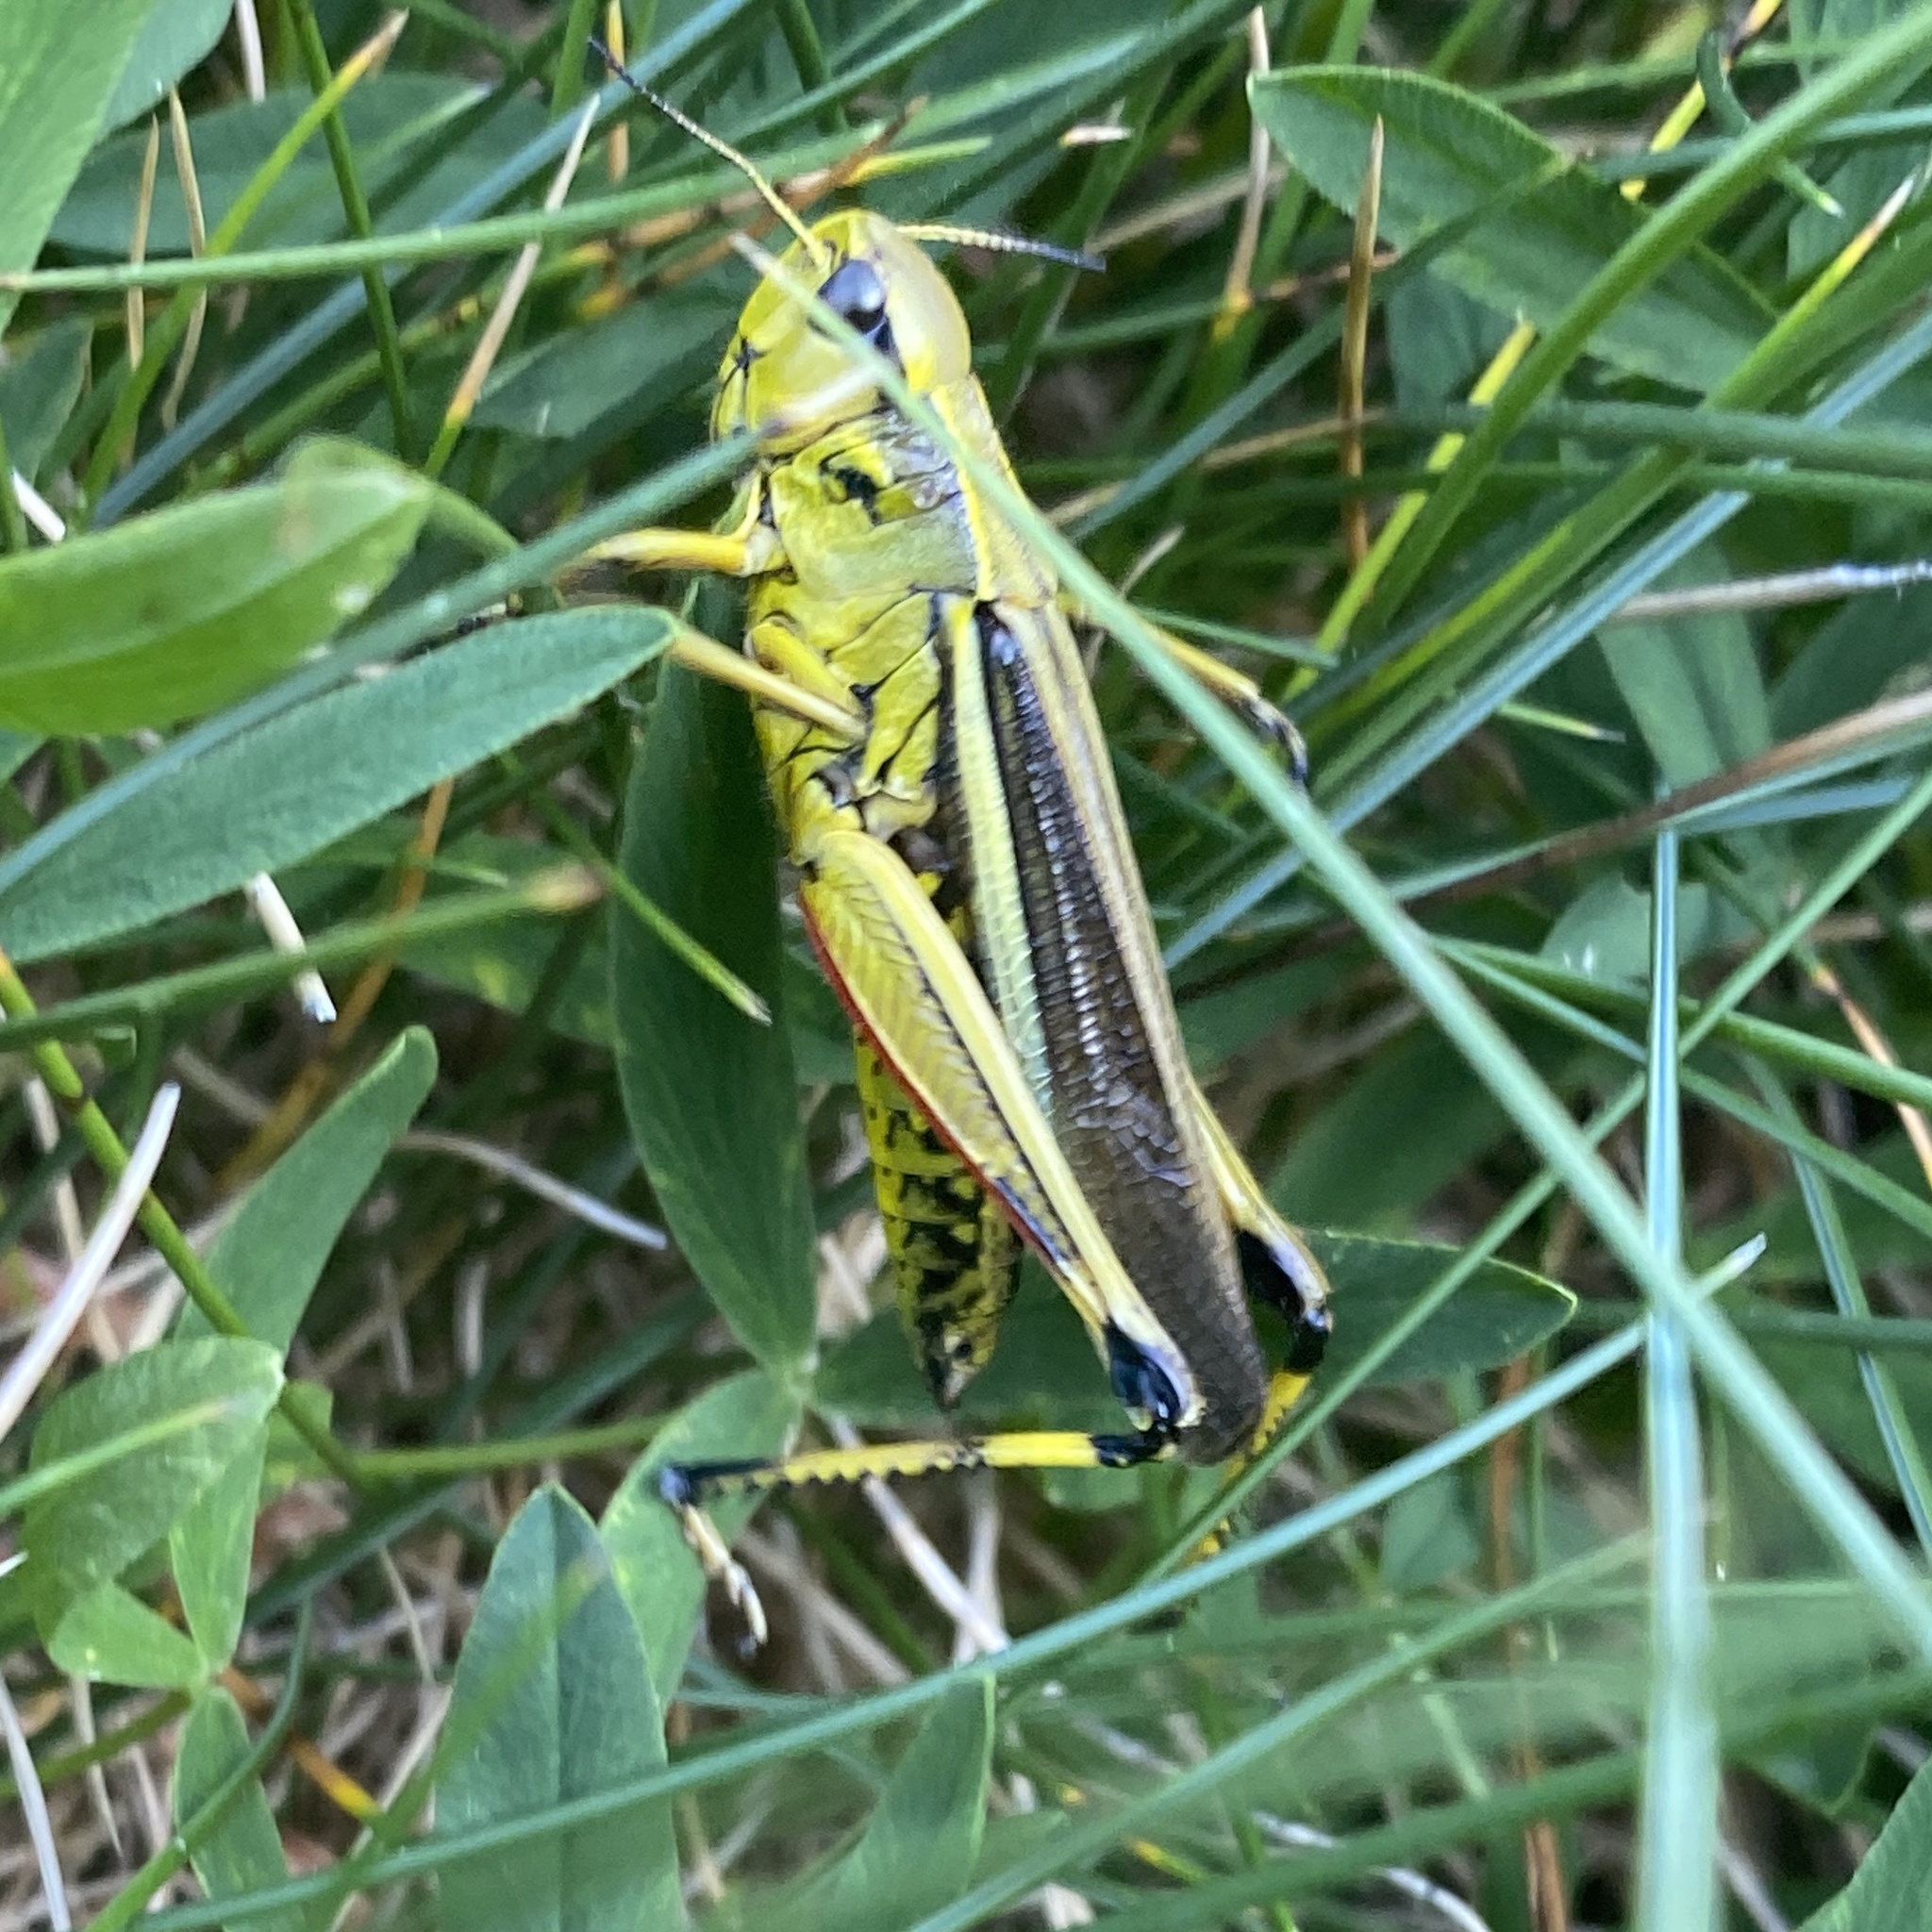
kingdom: Animalia
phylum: Arthropoda
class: Insecta
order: Orthoptera
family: Acrididae
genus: Stethophyma
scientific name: Stethophyma grossum
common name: Large marsh grasshopper
